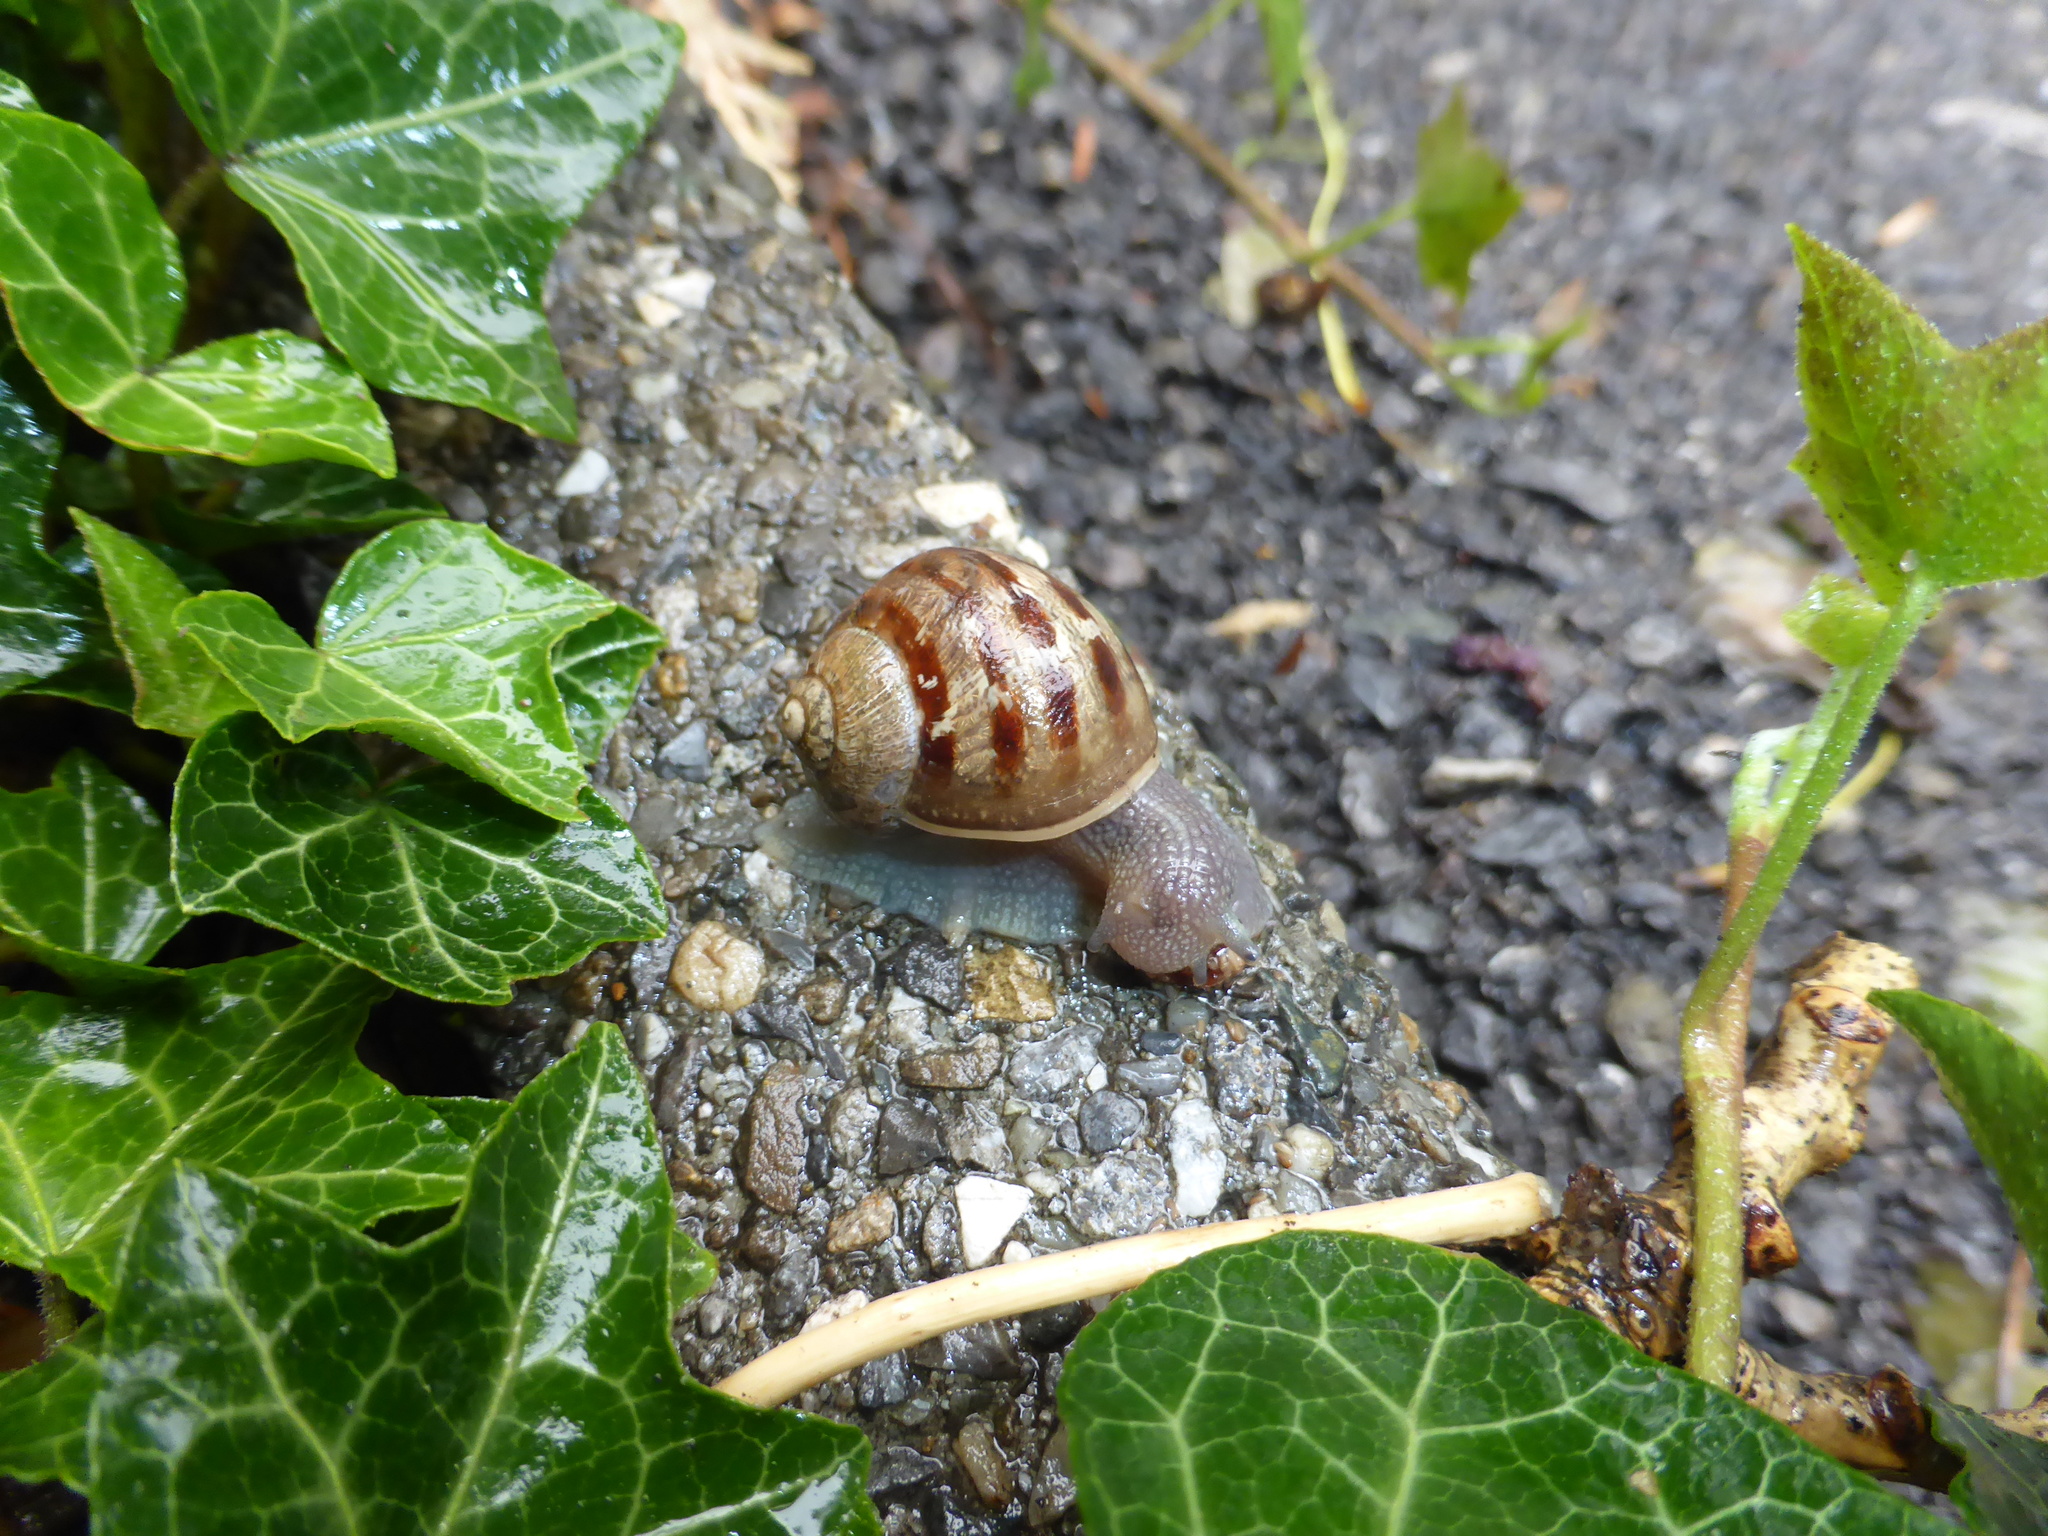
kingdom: Animalia
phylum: Mollusca
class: Gastropoda
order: Stylommatophora
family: Helicidae
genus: Cornu
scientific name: Cornu aspersum
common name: Brown garden snail
